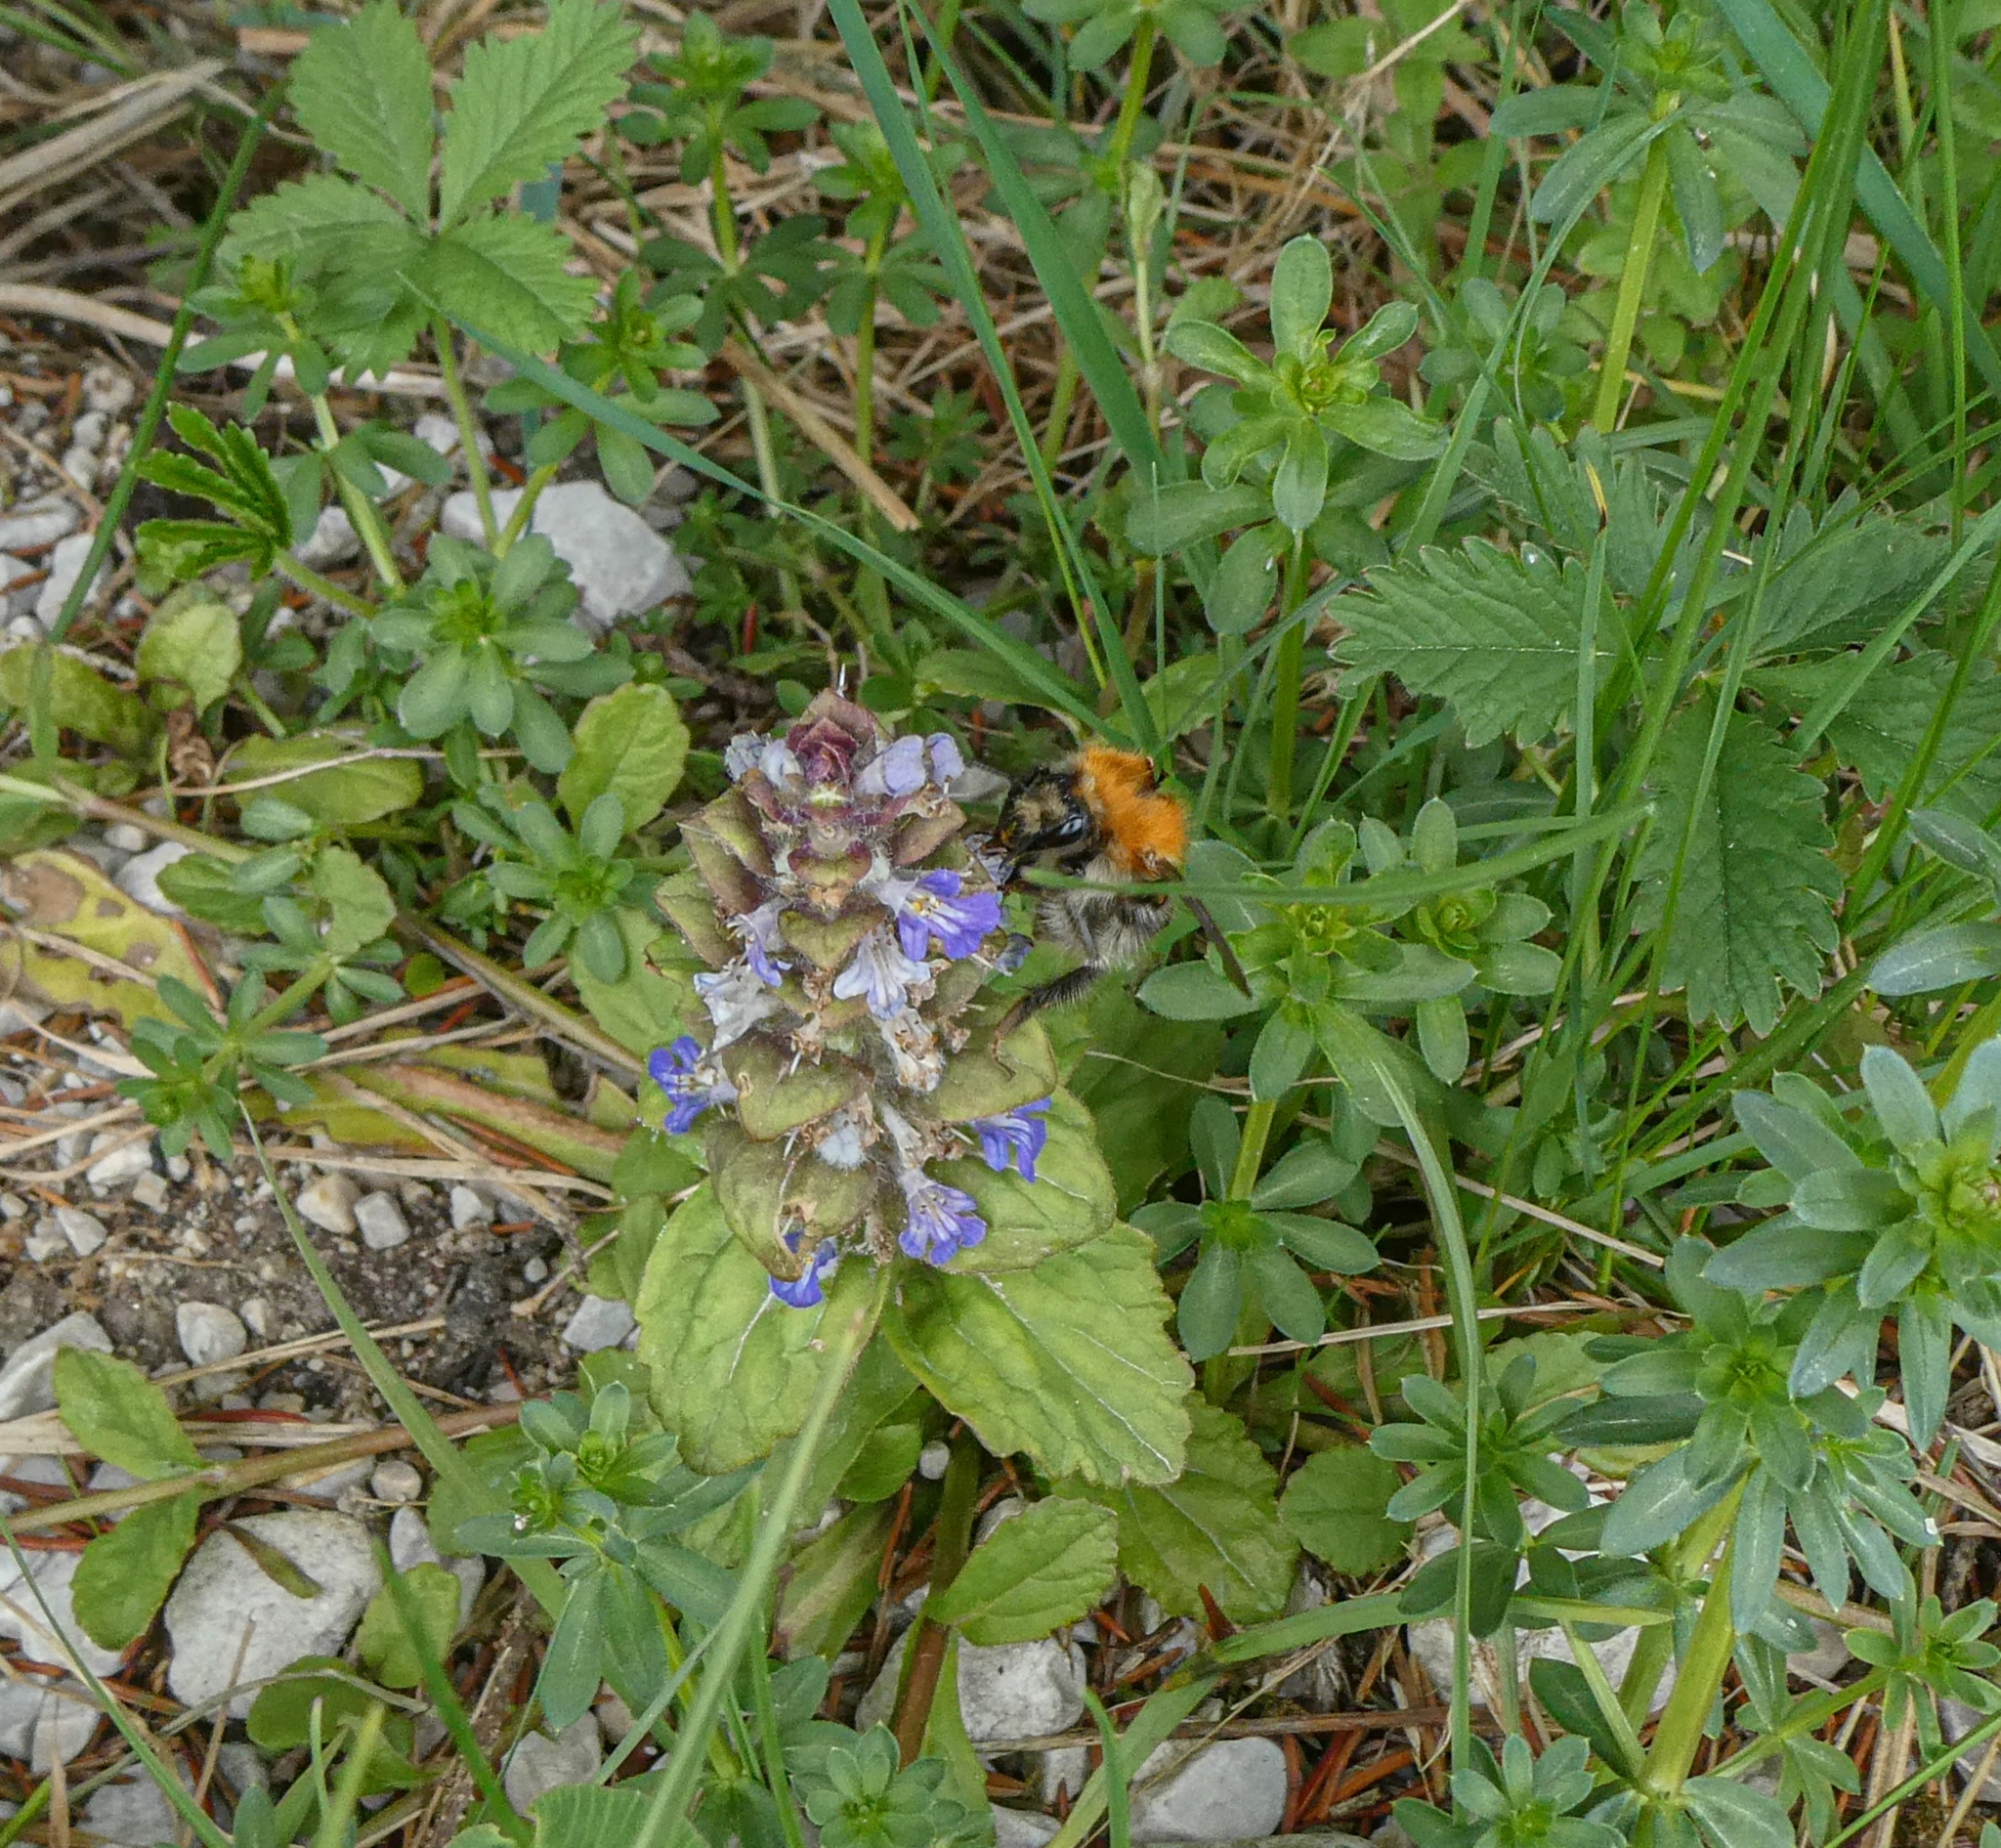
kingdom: Animalia
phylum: Arthropoda
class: Insecta
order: Hymenoptera
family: Apidae
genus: Bombus
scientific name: Bombus pascuorum
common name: Common carder bee
